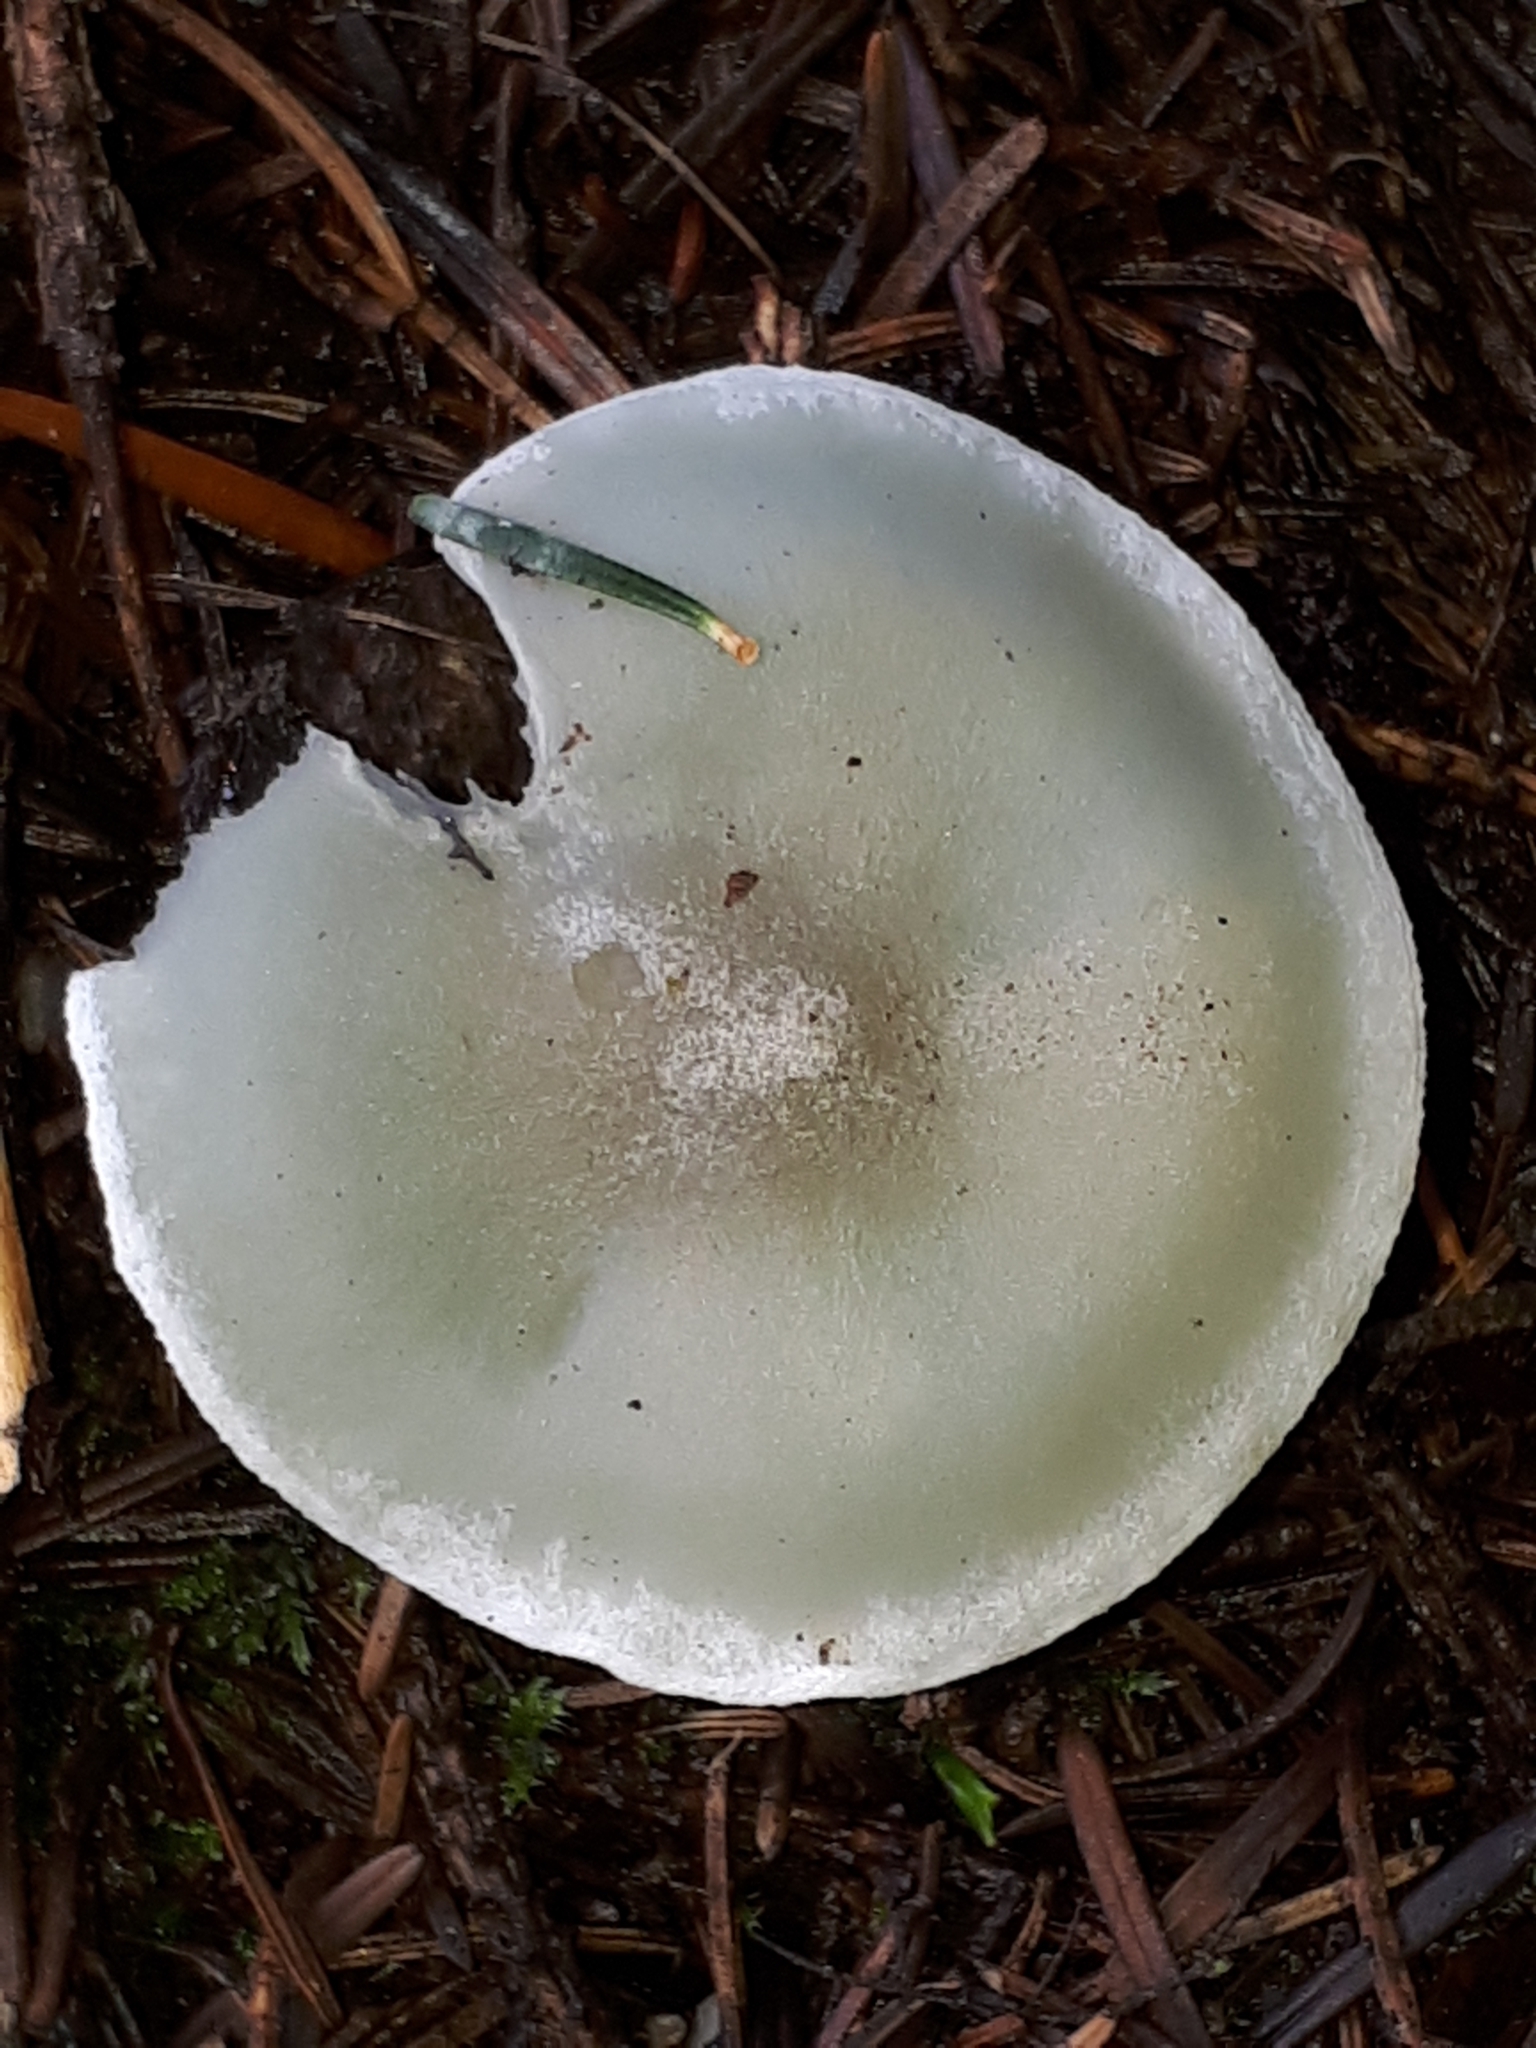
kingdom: Fungi
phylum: Basidiomycota
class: Agaricomycetes
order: Agaricales
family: Tricholomataceae
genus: Collybia
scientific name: Collybia
